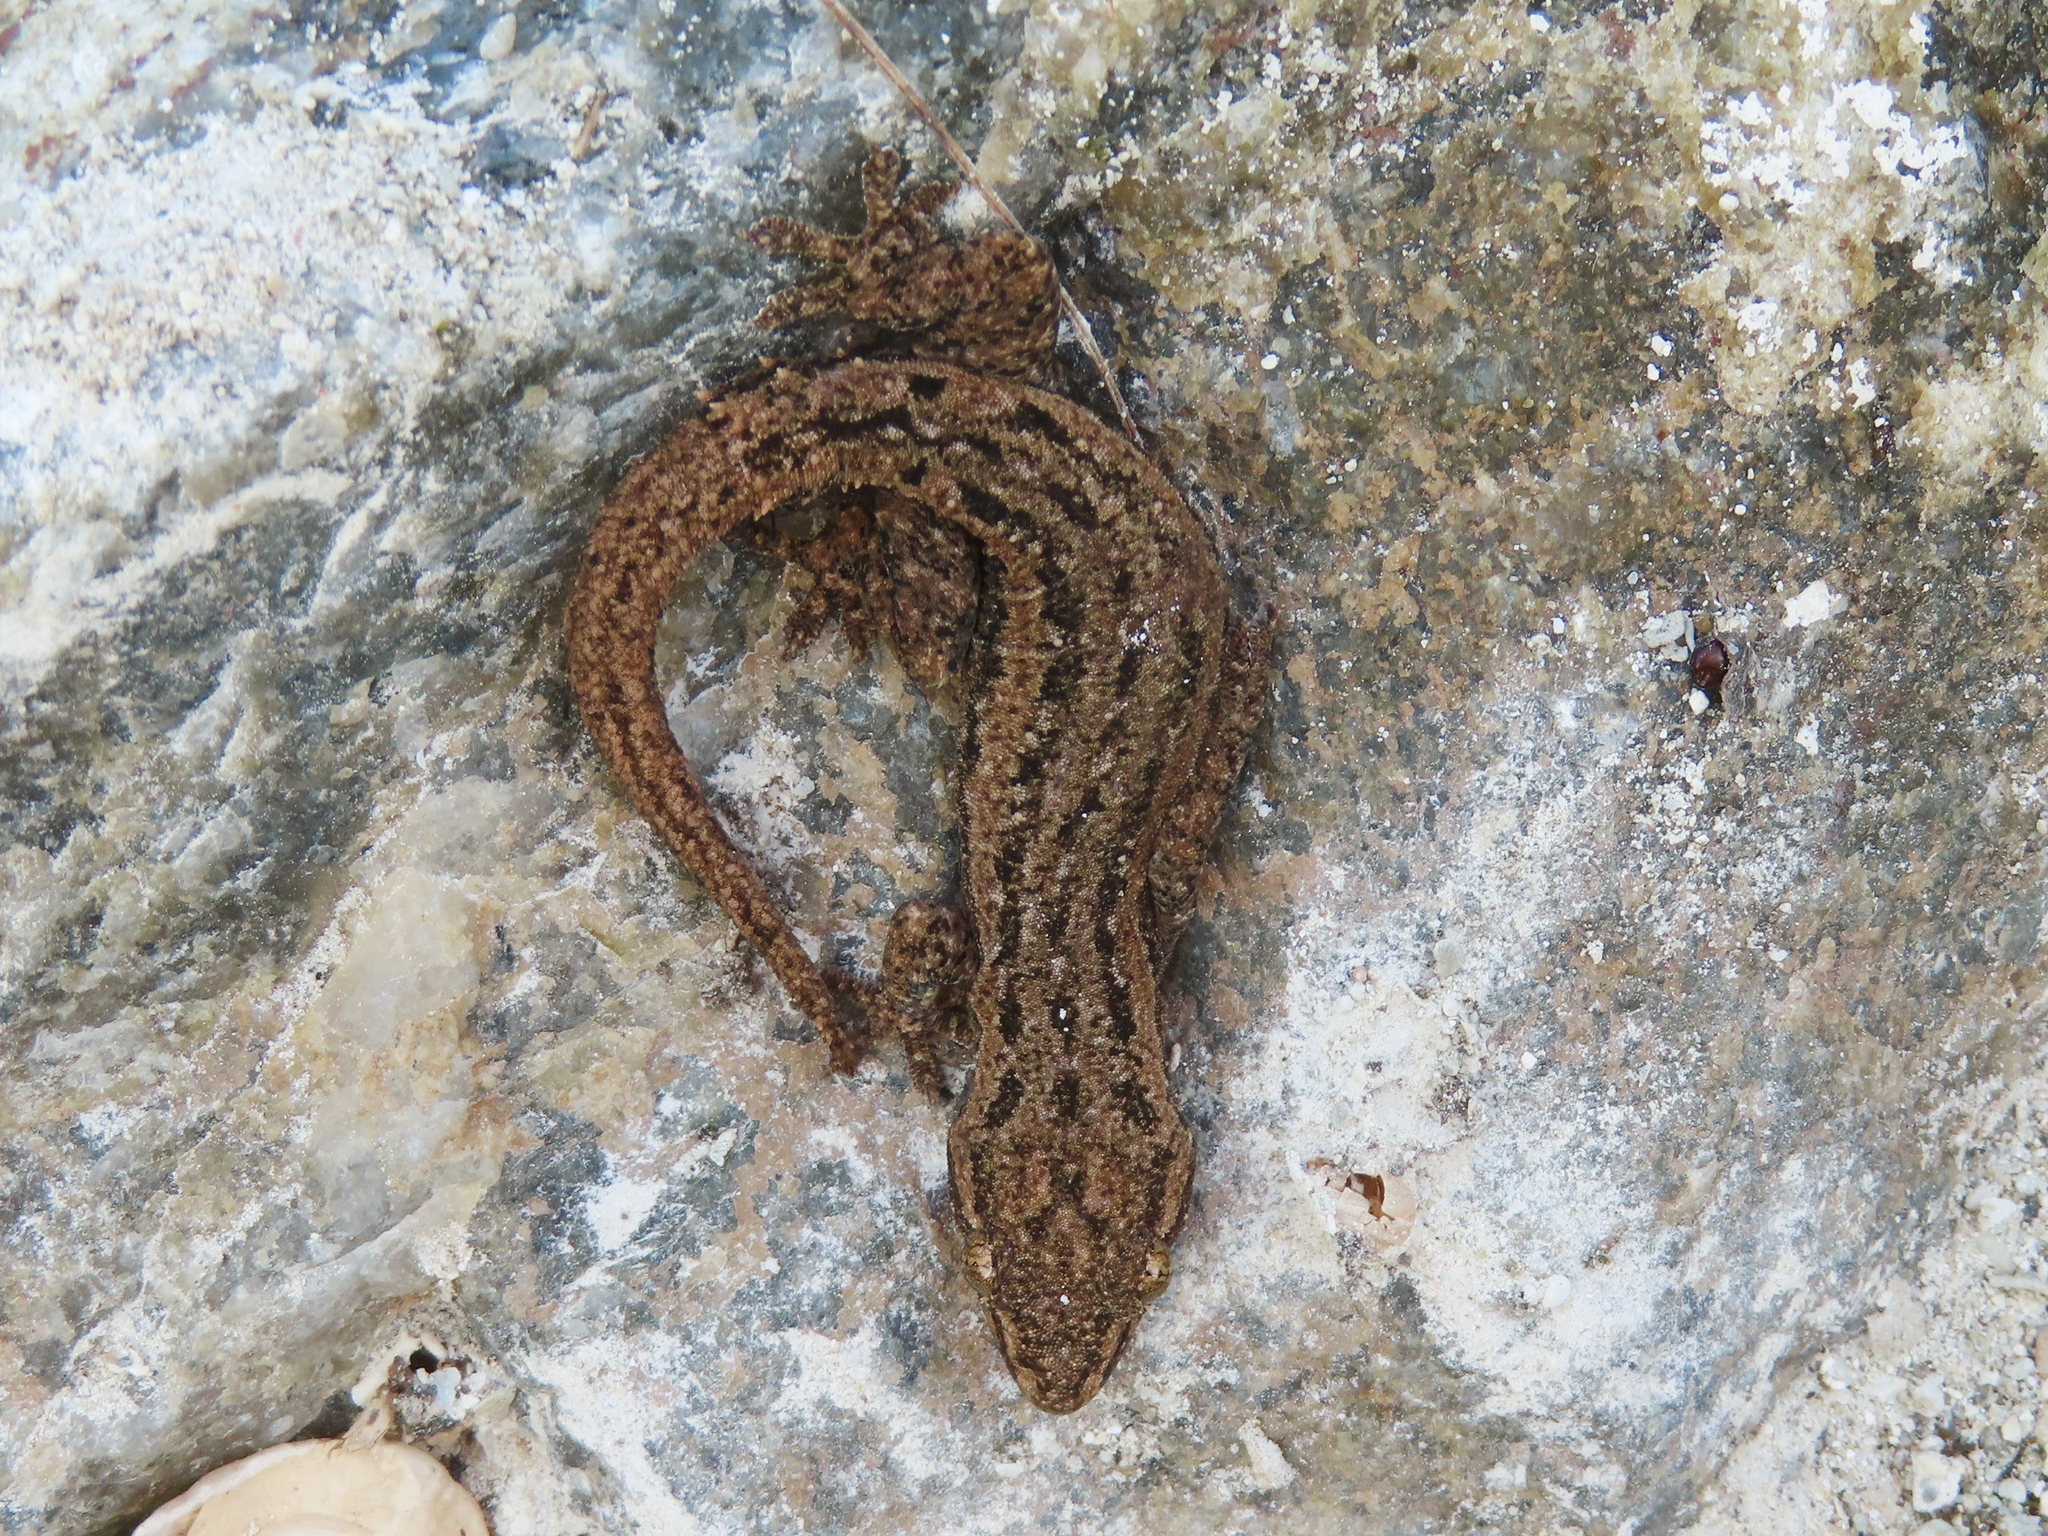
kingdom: Animalia
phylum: Chordata
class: Squamata
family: Gekkonidae
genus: Hemidactylus
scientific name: Hemidactylus frenatus
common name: Common house gecko
